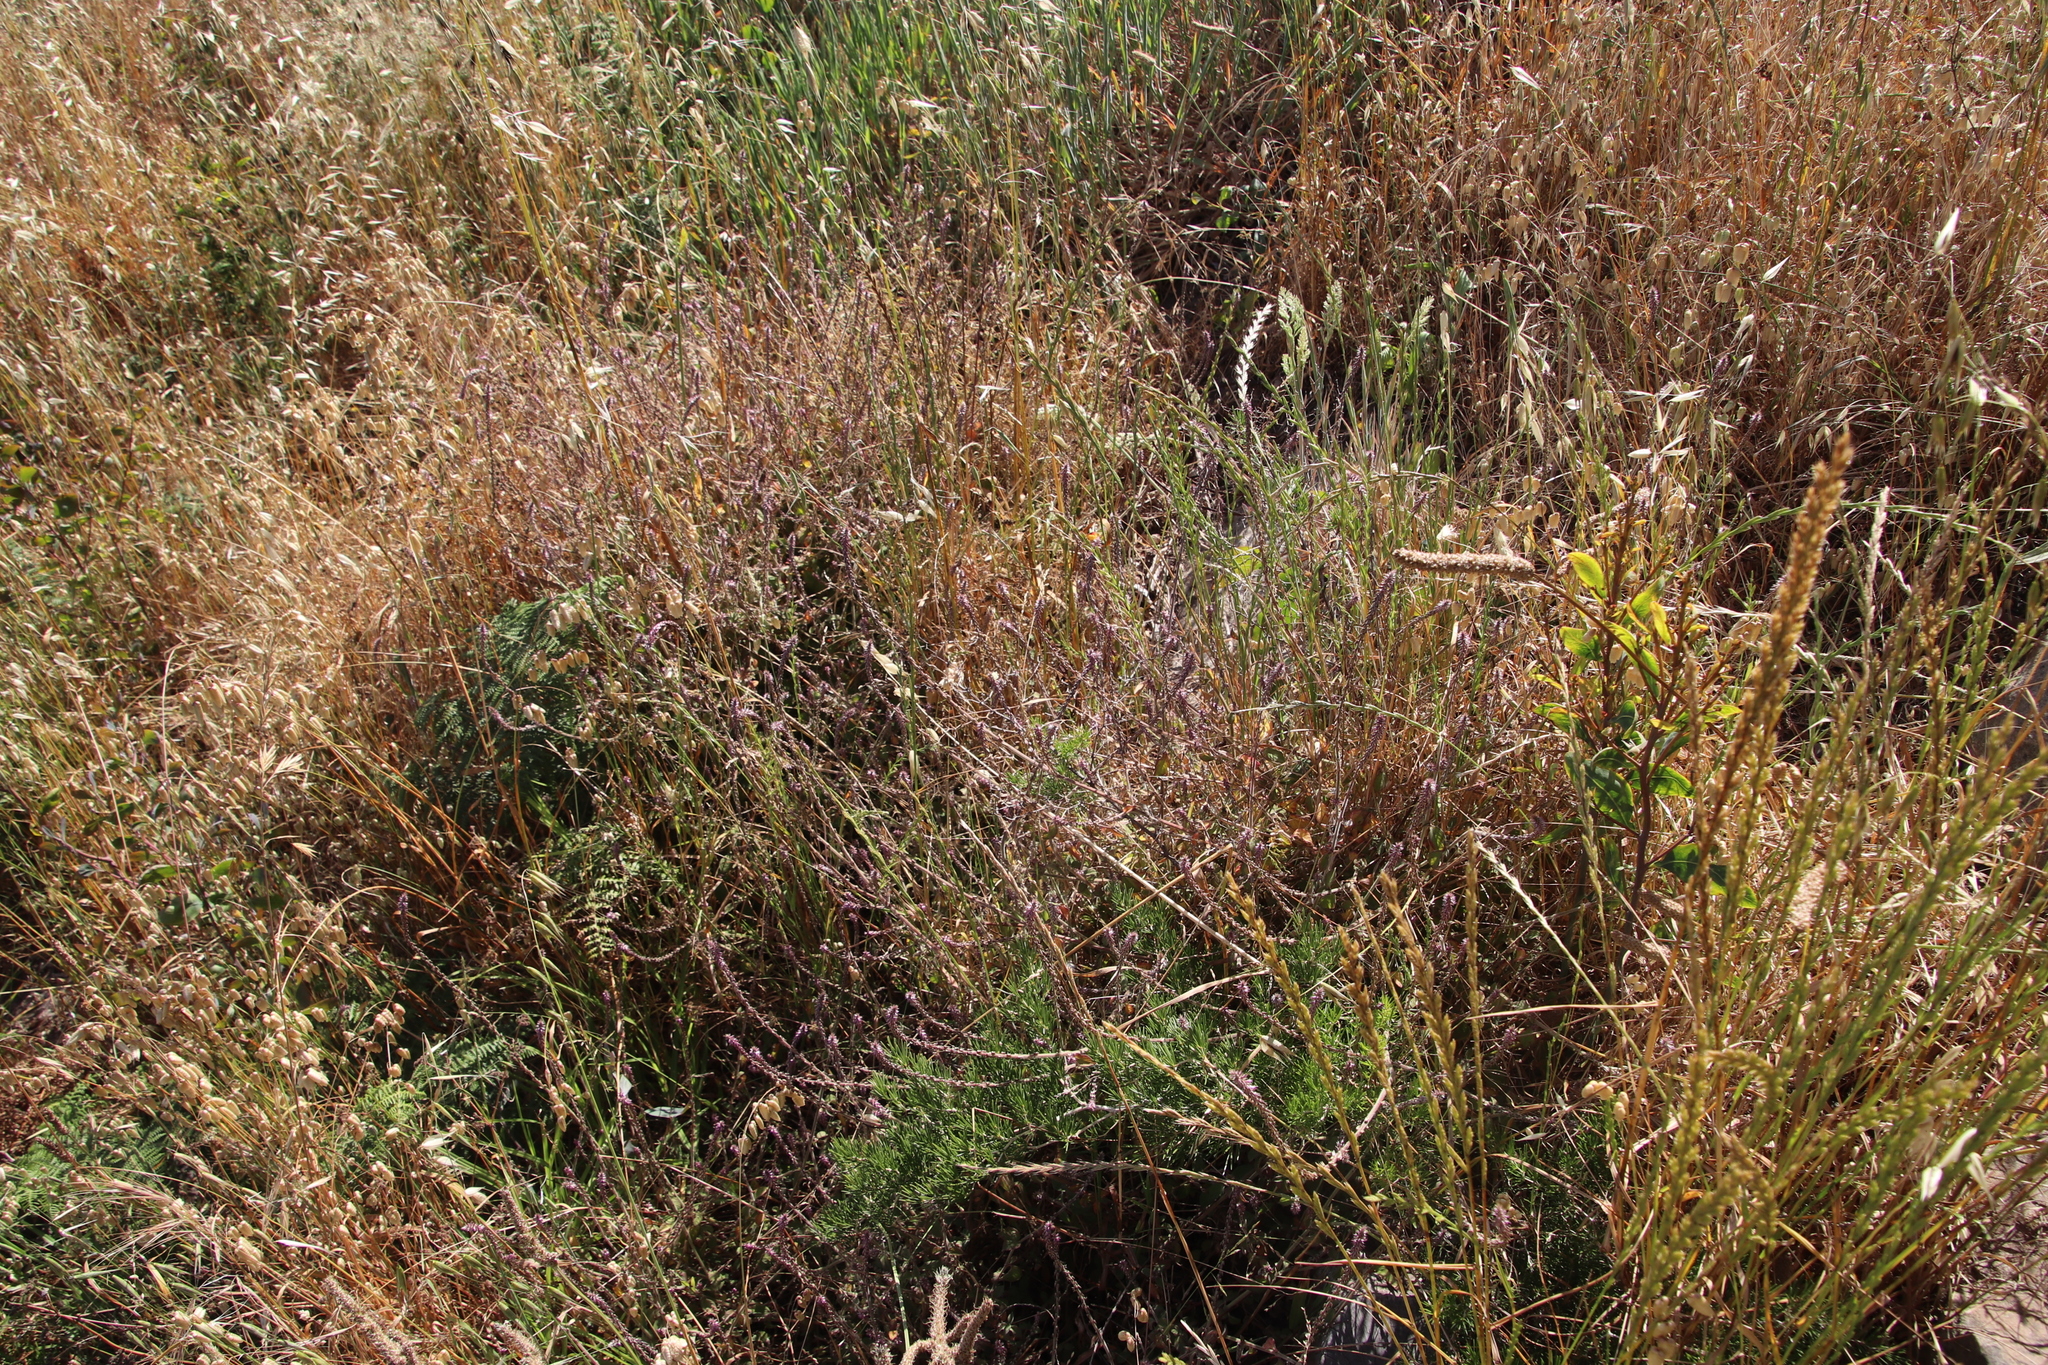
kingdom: Plantae
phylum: Tracheophyta
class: Magnoliopsida
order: Caryophyllales
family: Amaranthaceae
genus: Achyranthes
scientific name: Achyranthes aspera
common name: Devil's horsewhip
